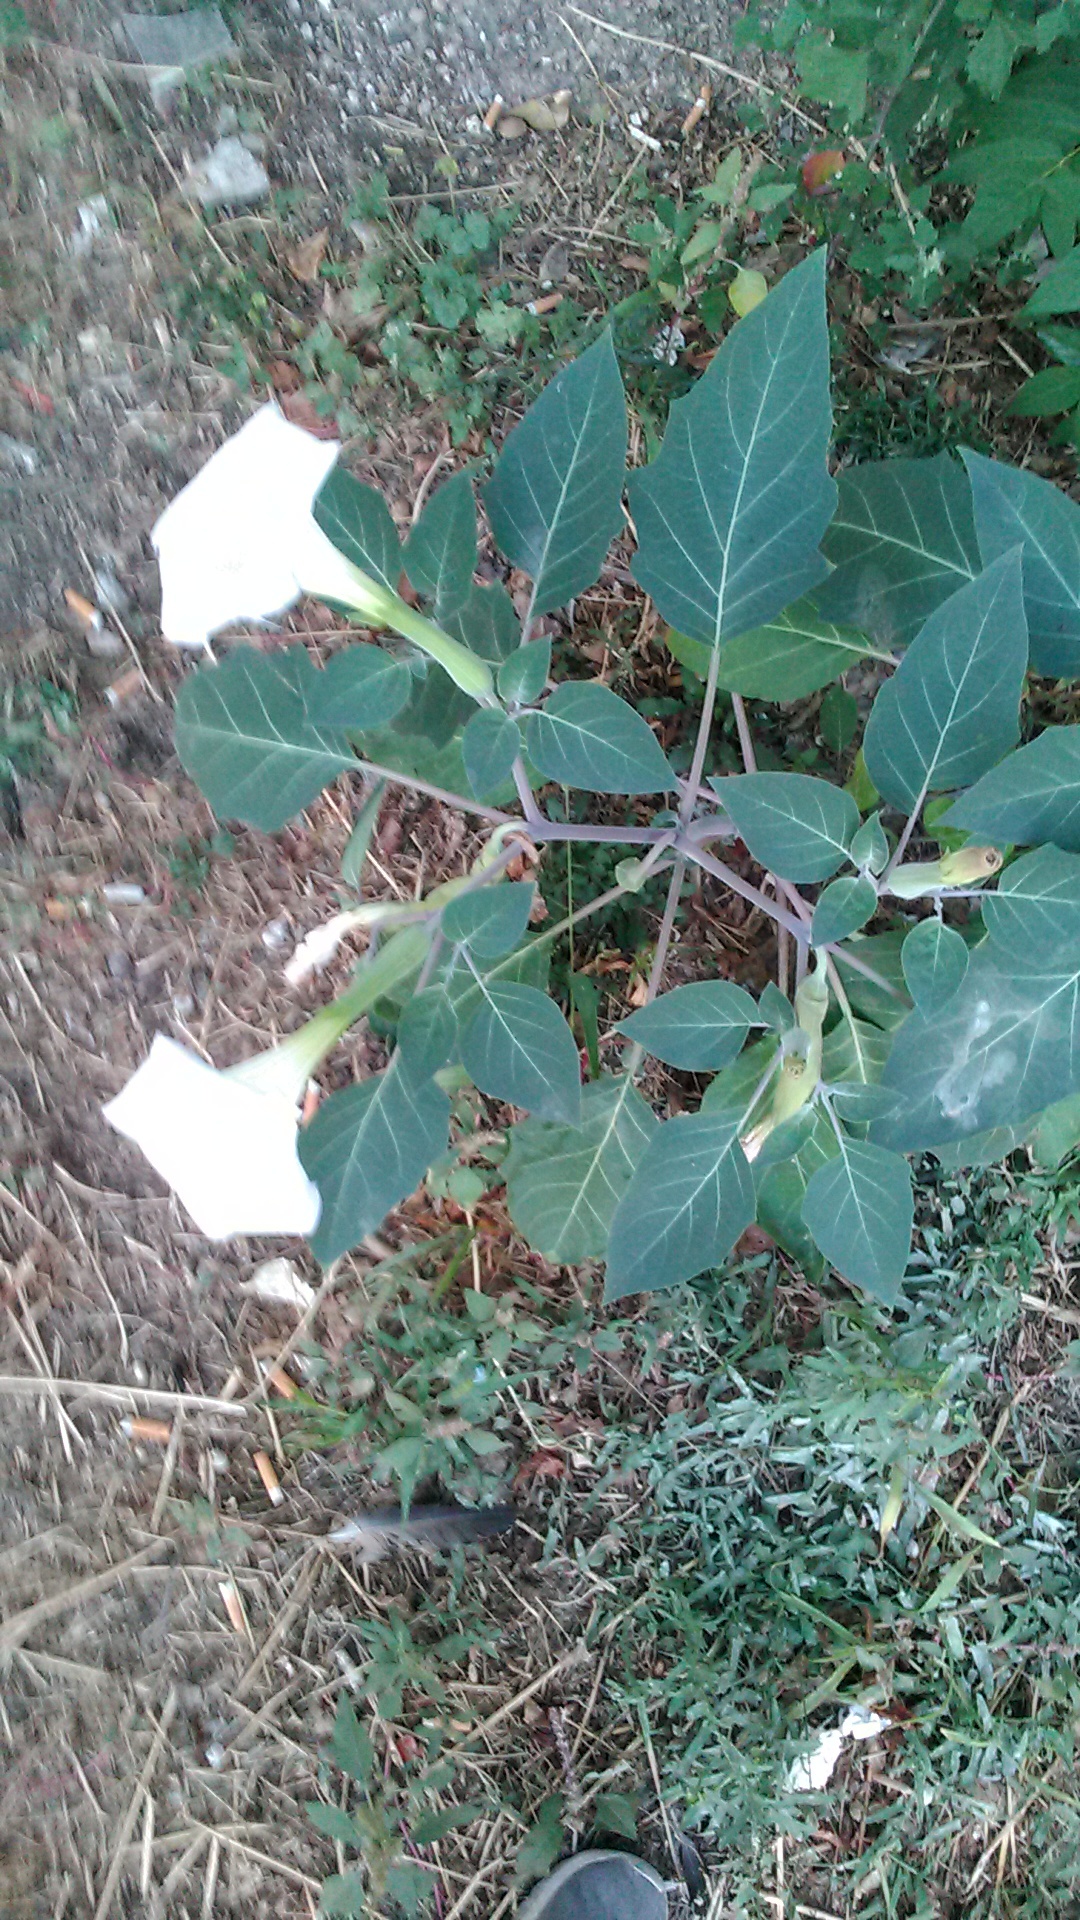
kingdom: Plantae
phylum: Tracheophyta
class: Magnoliopsida
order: Solanales
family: Solanaceae
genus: Datura
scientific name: Datura innoxia
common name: Downy thorn-apple
